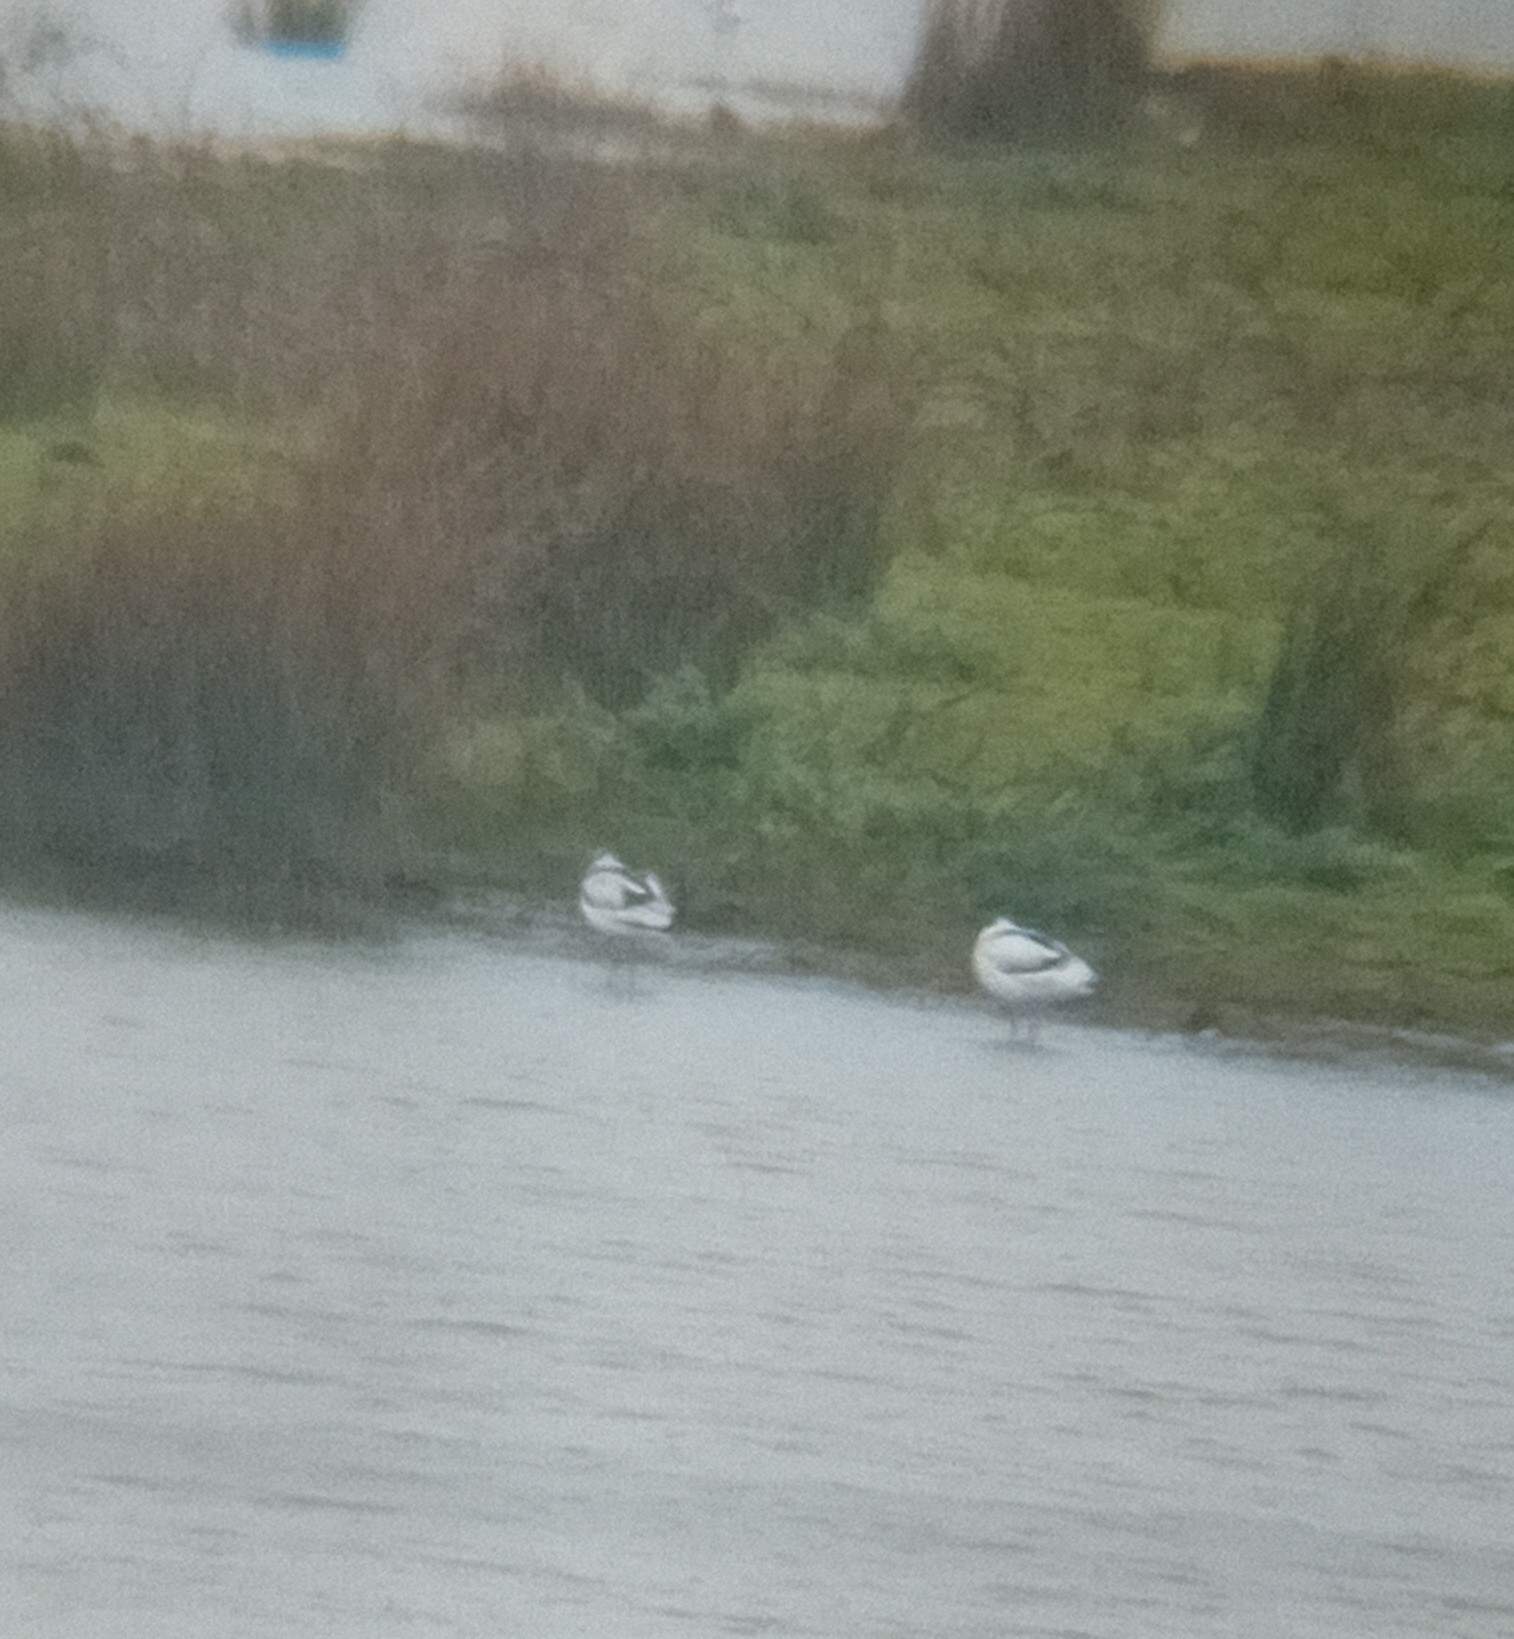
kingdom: Animalia
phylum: Chordata
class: Aves
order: Charadriiformes
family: Recurvirostridae
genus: Recurvirostra
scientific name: Recurvirostra avosetta
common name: Pied avocet
